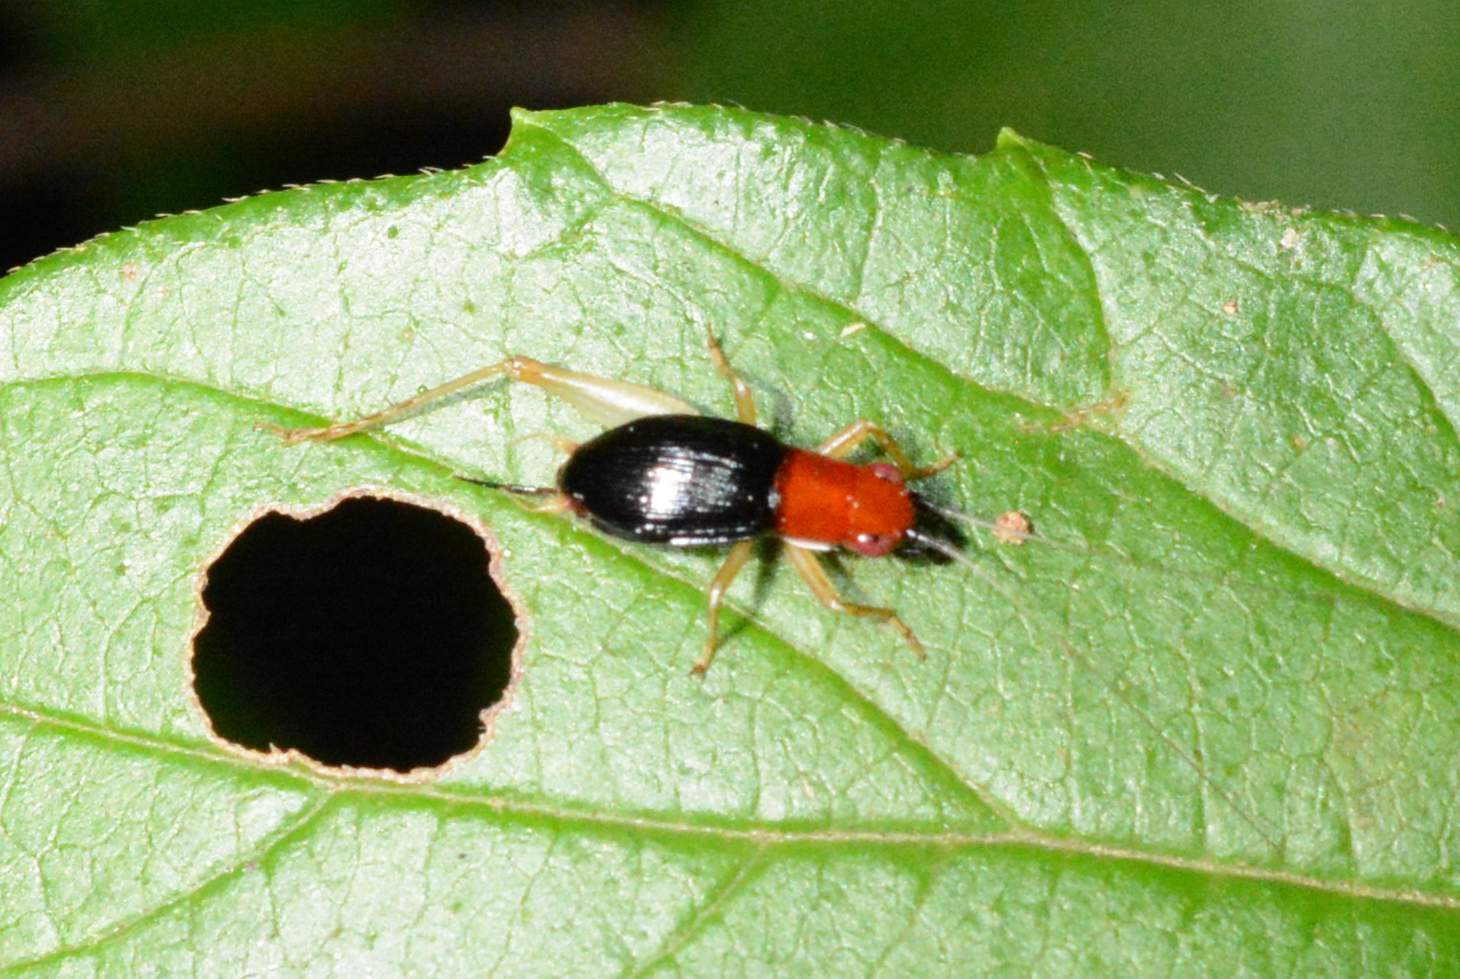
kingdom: Animalia
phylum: Arthropoda
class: Insecta
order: Orthoptera
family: Trigonidiidae
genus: Phyllopalpus
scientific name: Phyllopalpus pulchellus
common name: Handsome trig
